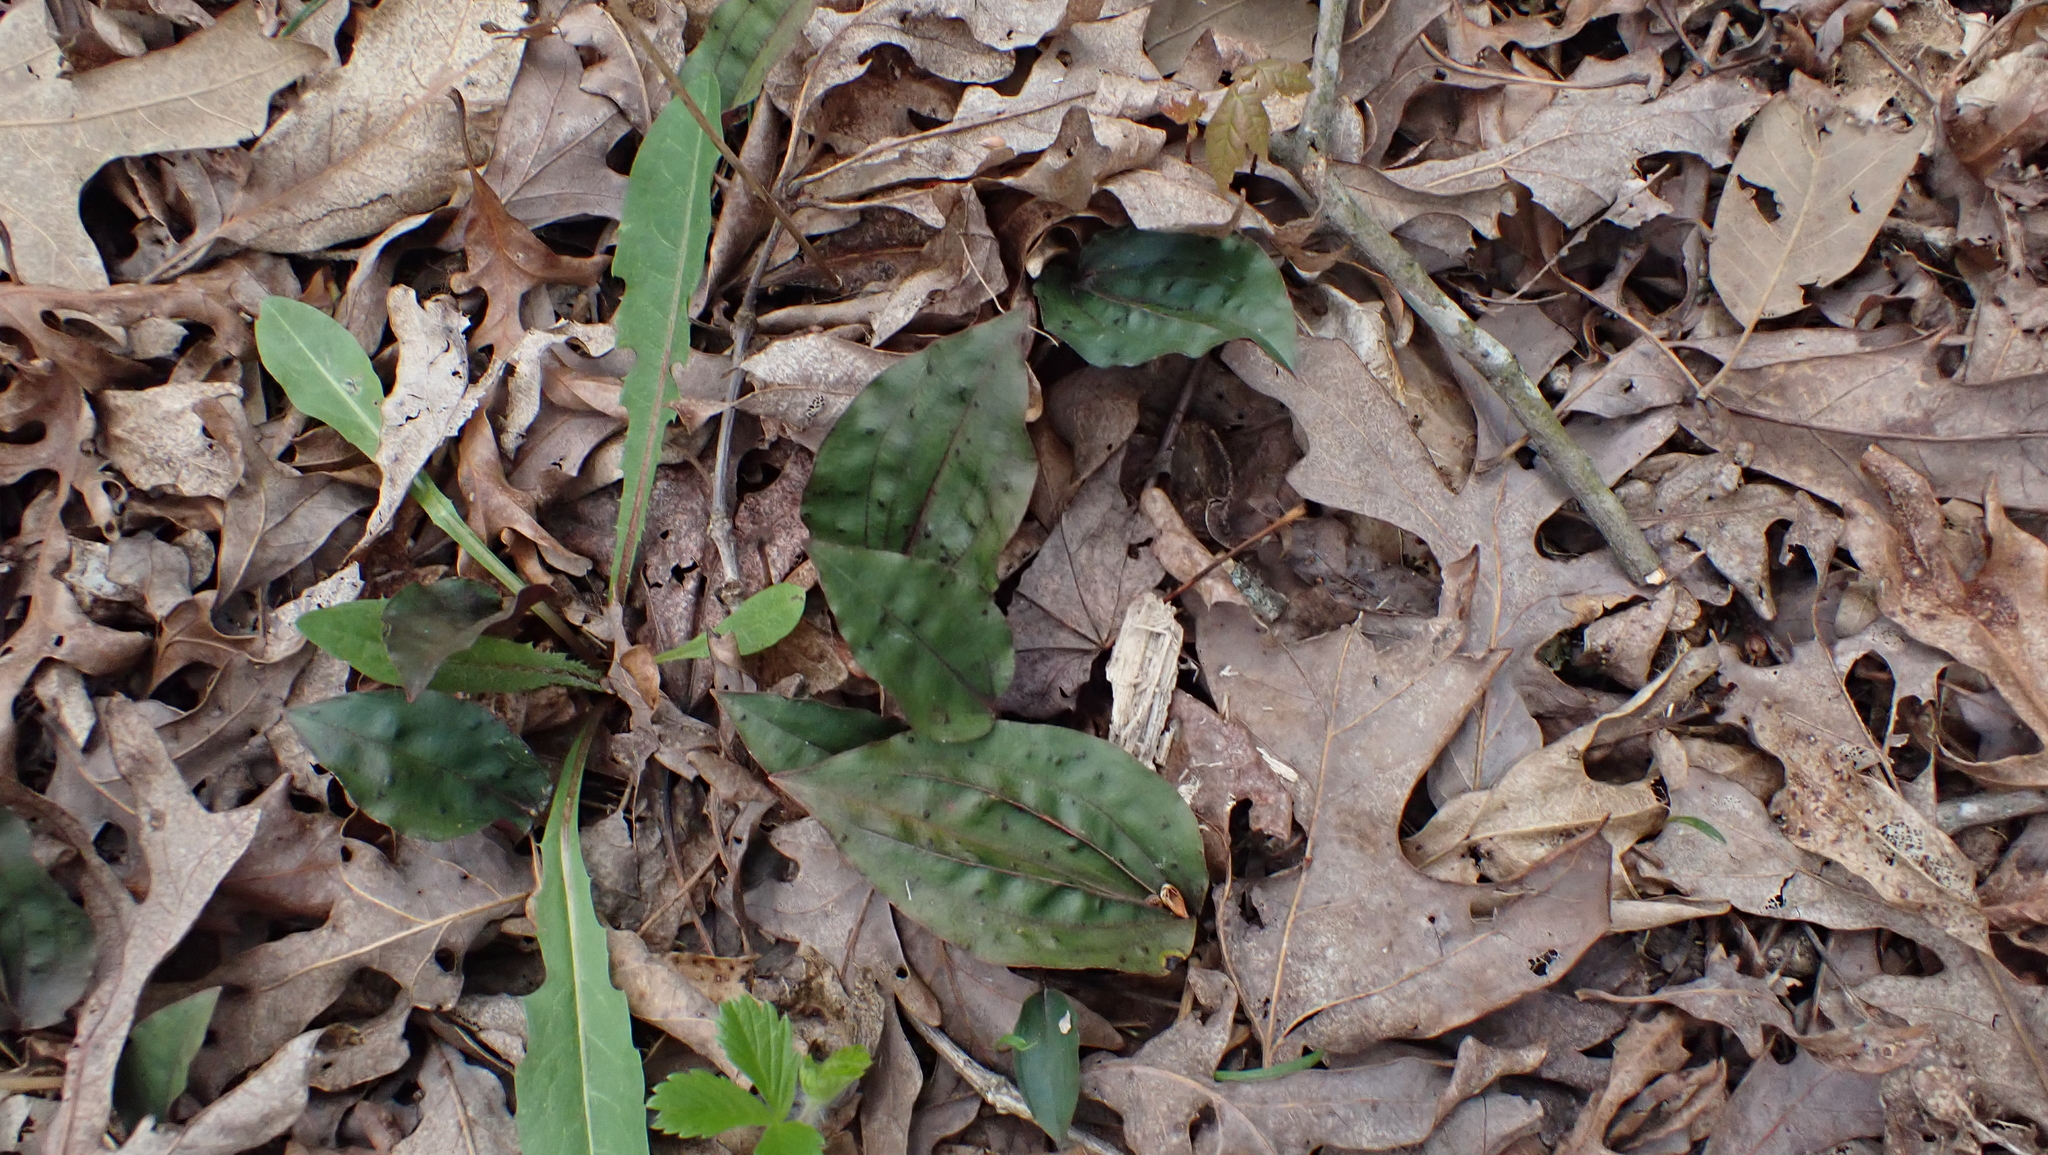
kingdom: Plantae
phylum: Tracheophyta
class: Liliopsida
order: Asparagales
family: Orchidaceae
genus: Tipularia
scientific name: Tipularia discolor
